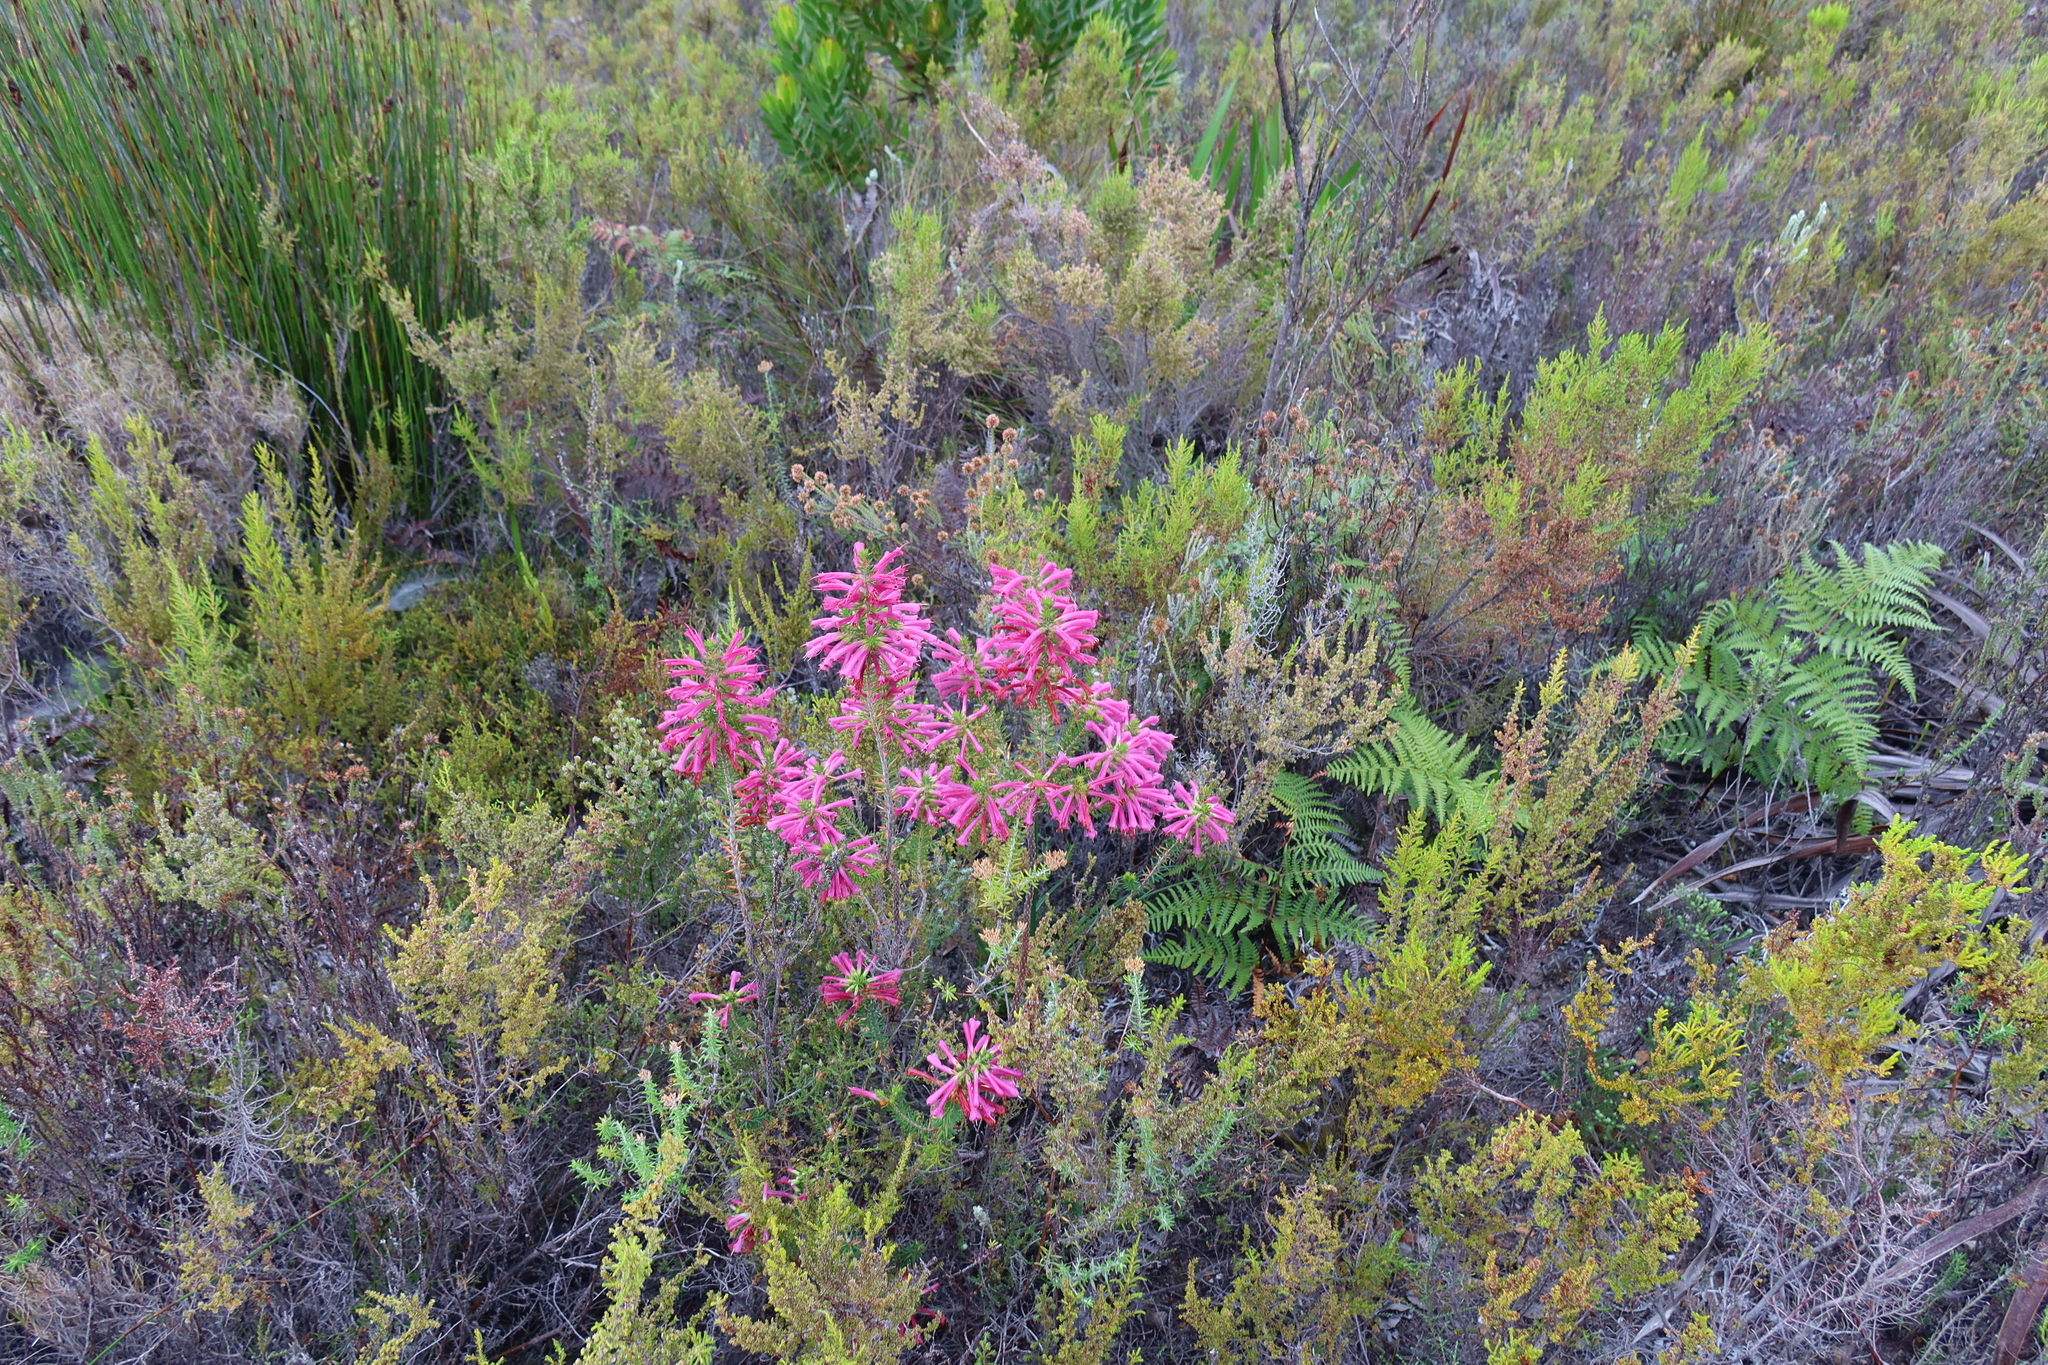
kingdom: Plantae
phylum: Tracheophyta
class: Magnoliopsida
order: Ericales
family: Ericaceae
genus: Erica
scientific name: Erica abietina
